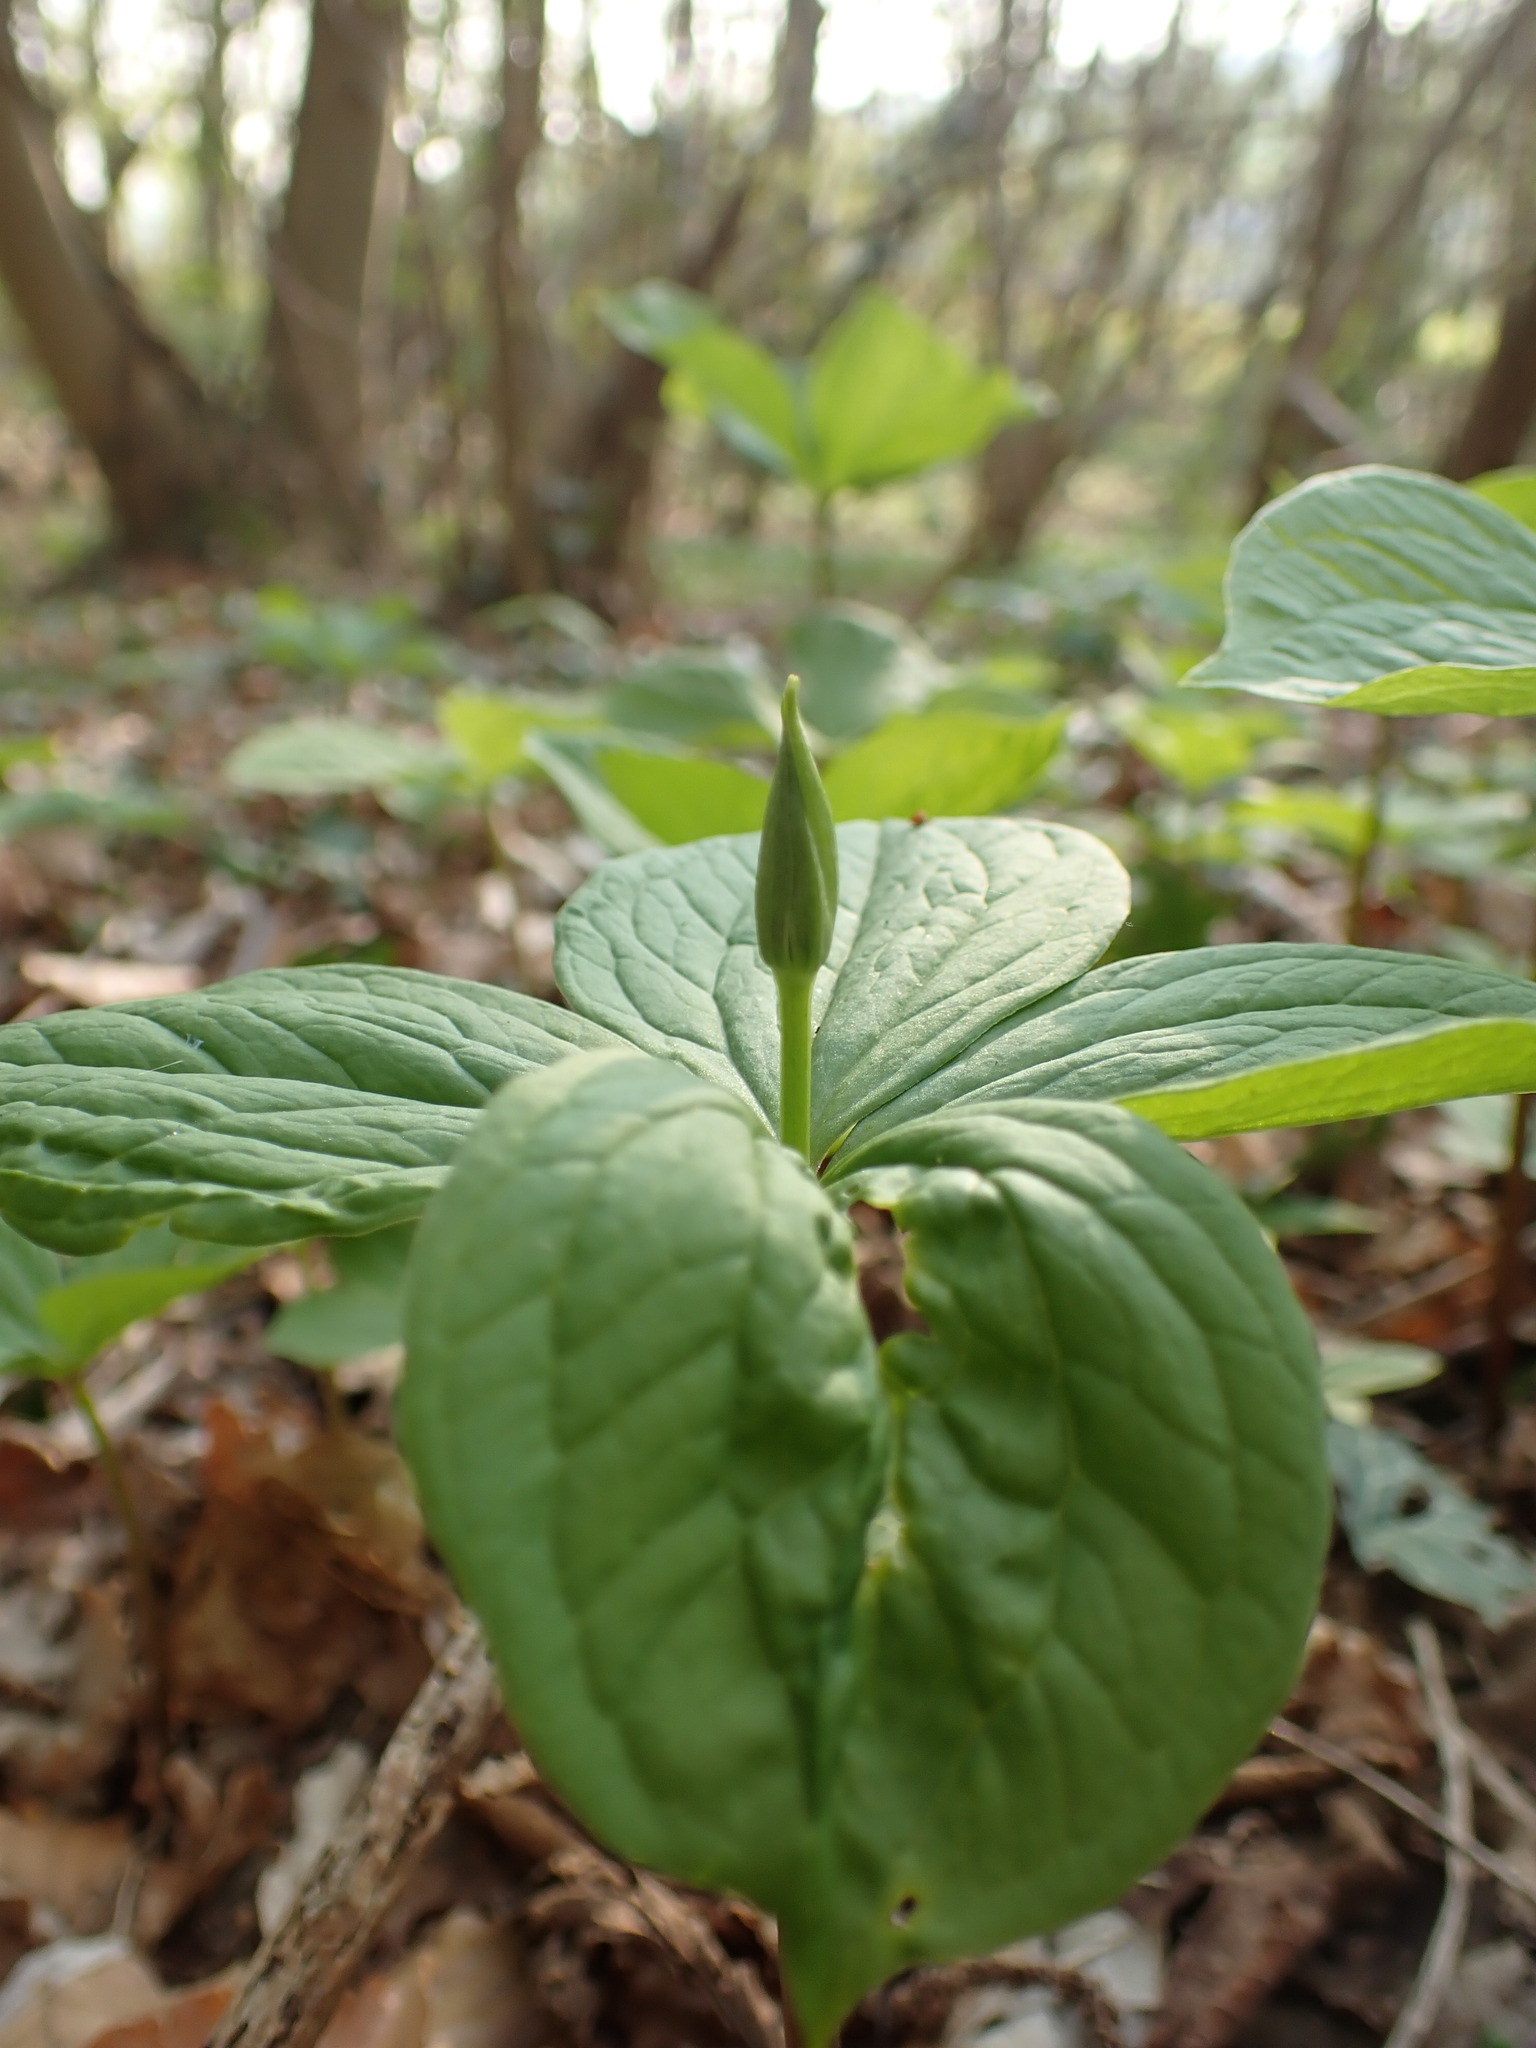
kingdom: Plantae
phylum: Tracheophyta
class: Liliopsida
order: Liliales
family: Melanthiaceae
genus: Paris
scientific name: Paris quadrifolia
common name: Herb-paris
